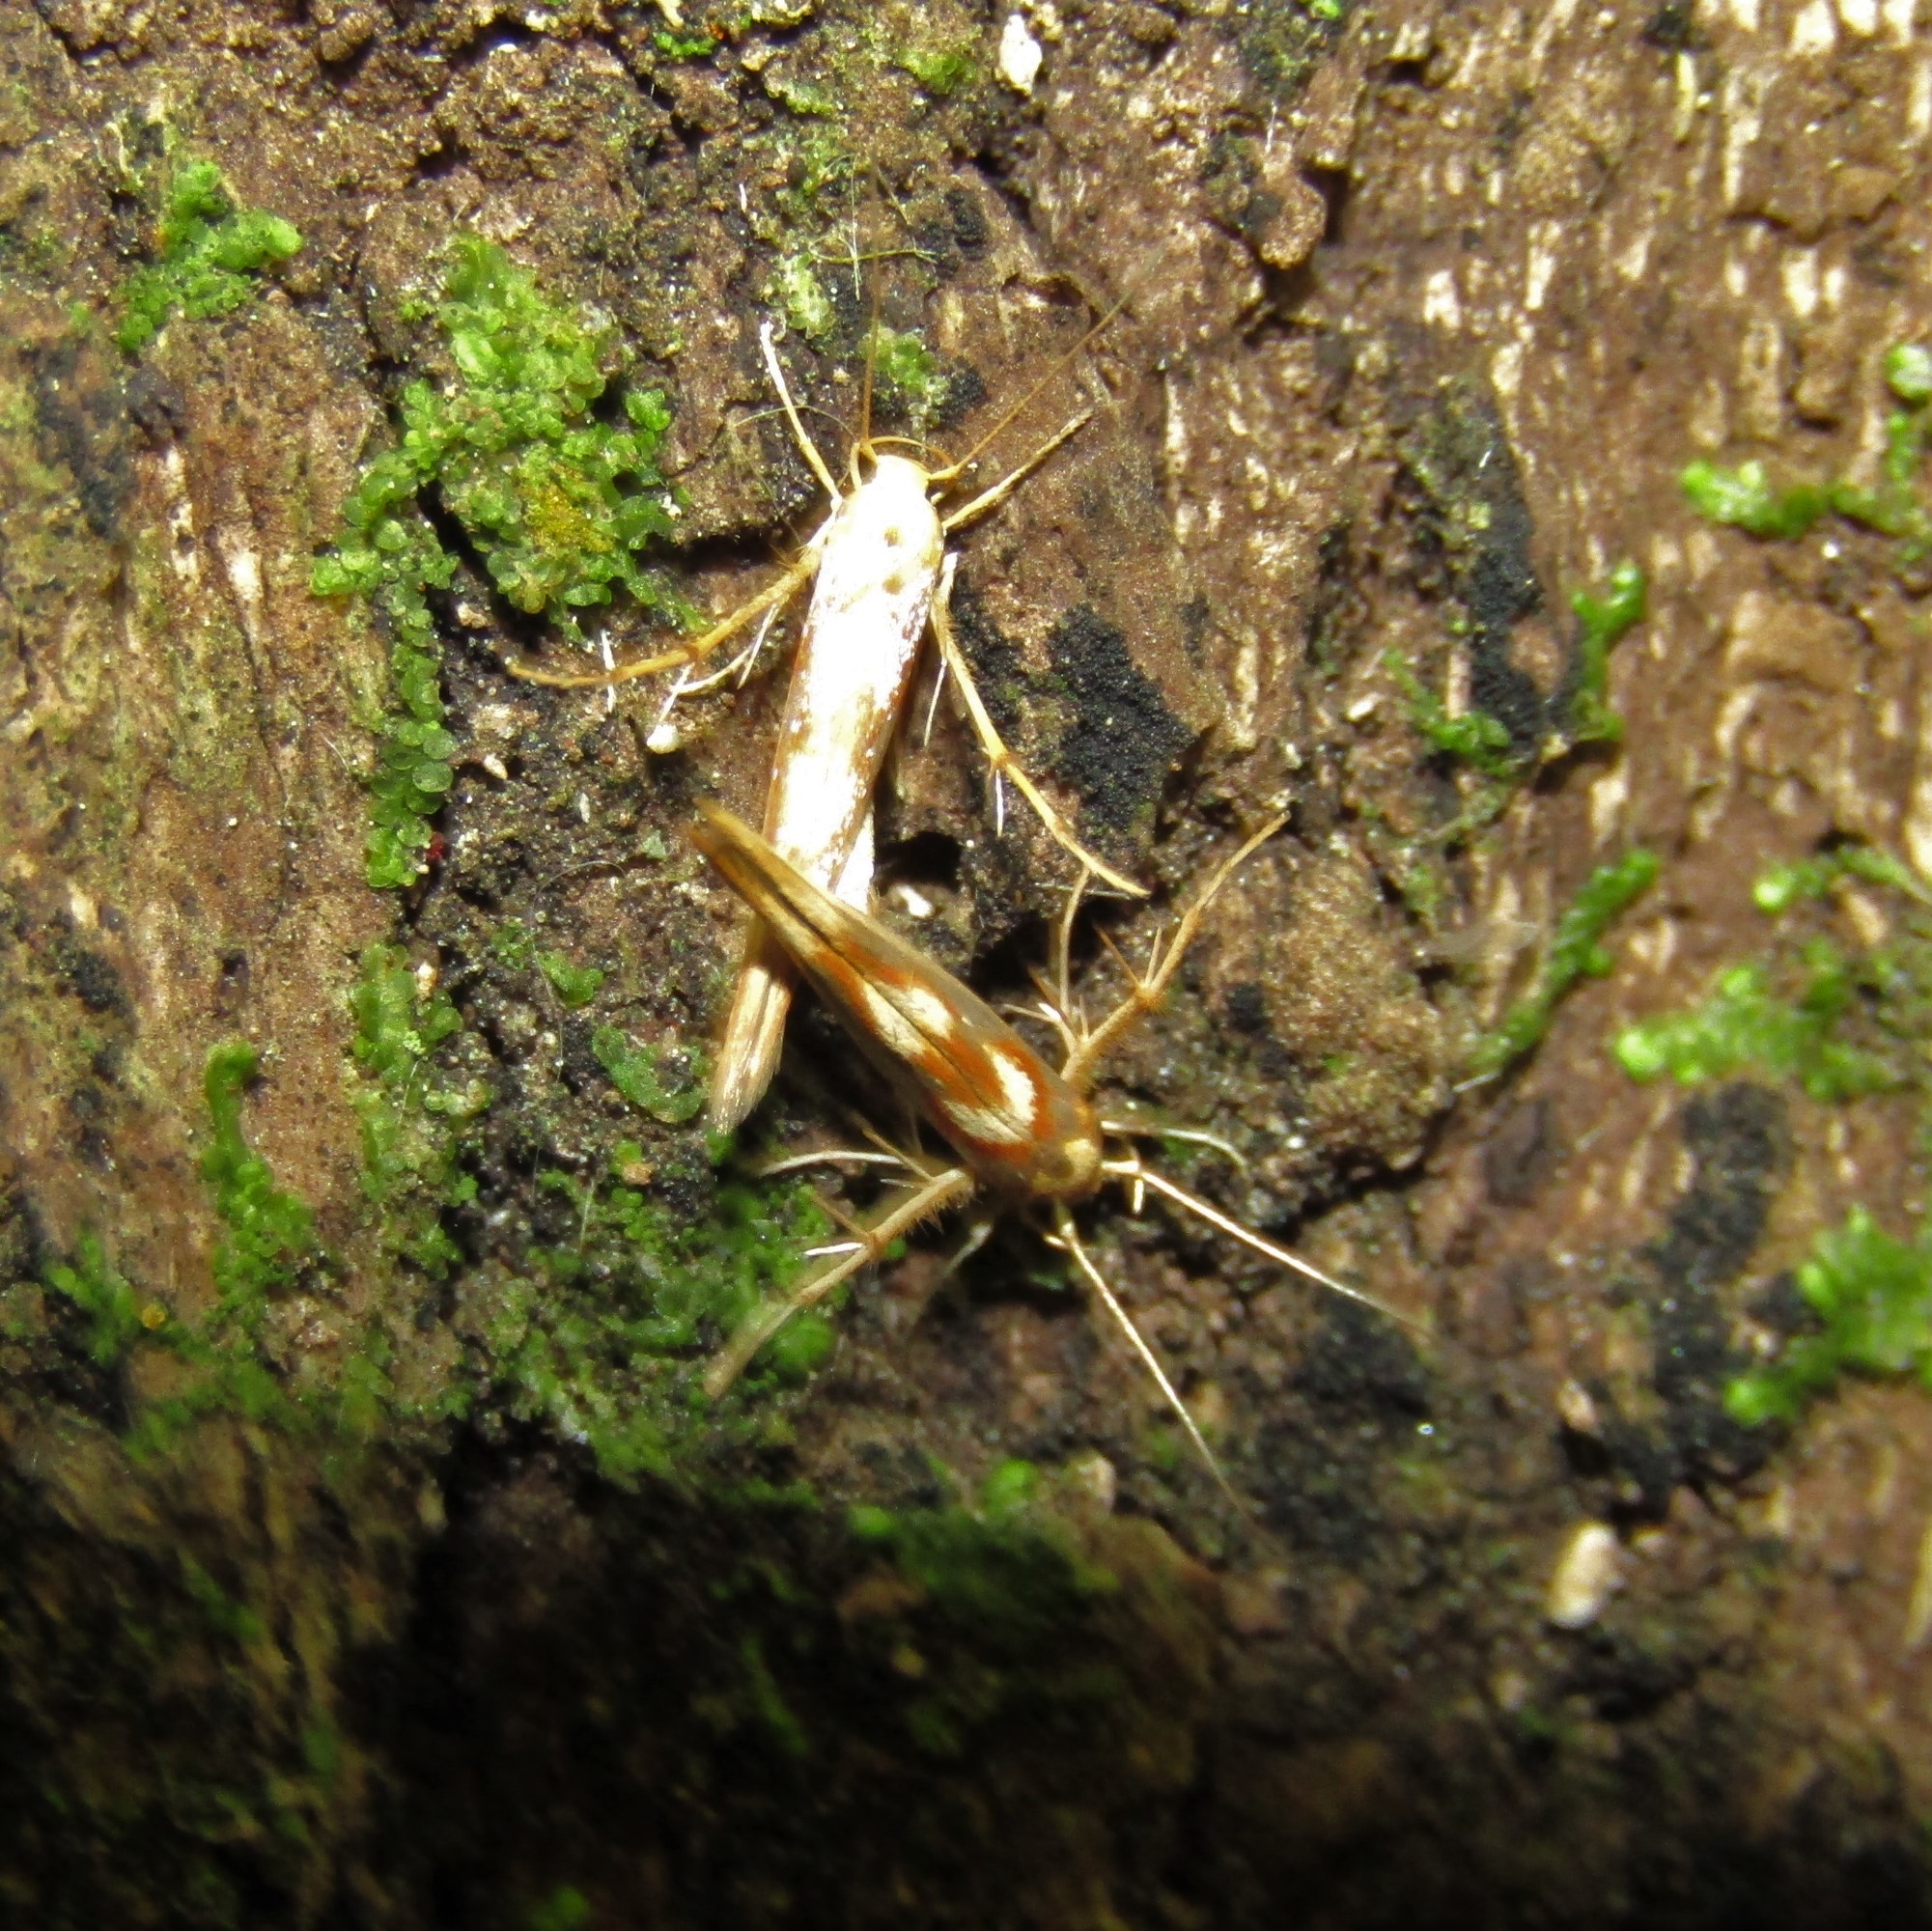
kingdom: Animalia
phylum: Arthropoda
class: Insecta
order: Lepidoptera
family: Stathmopodidae
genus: Stathmopoda
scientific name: Stathmopoda caminora
